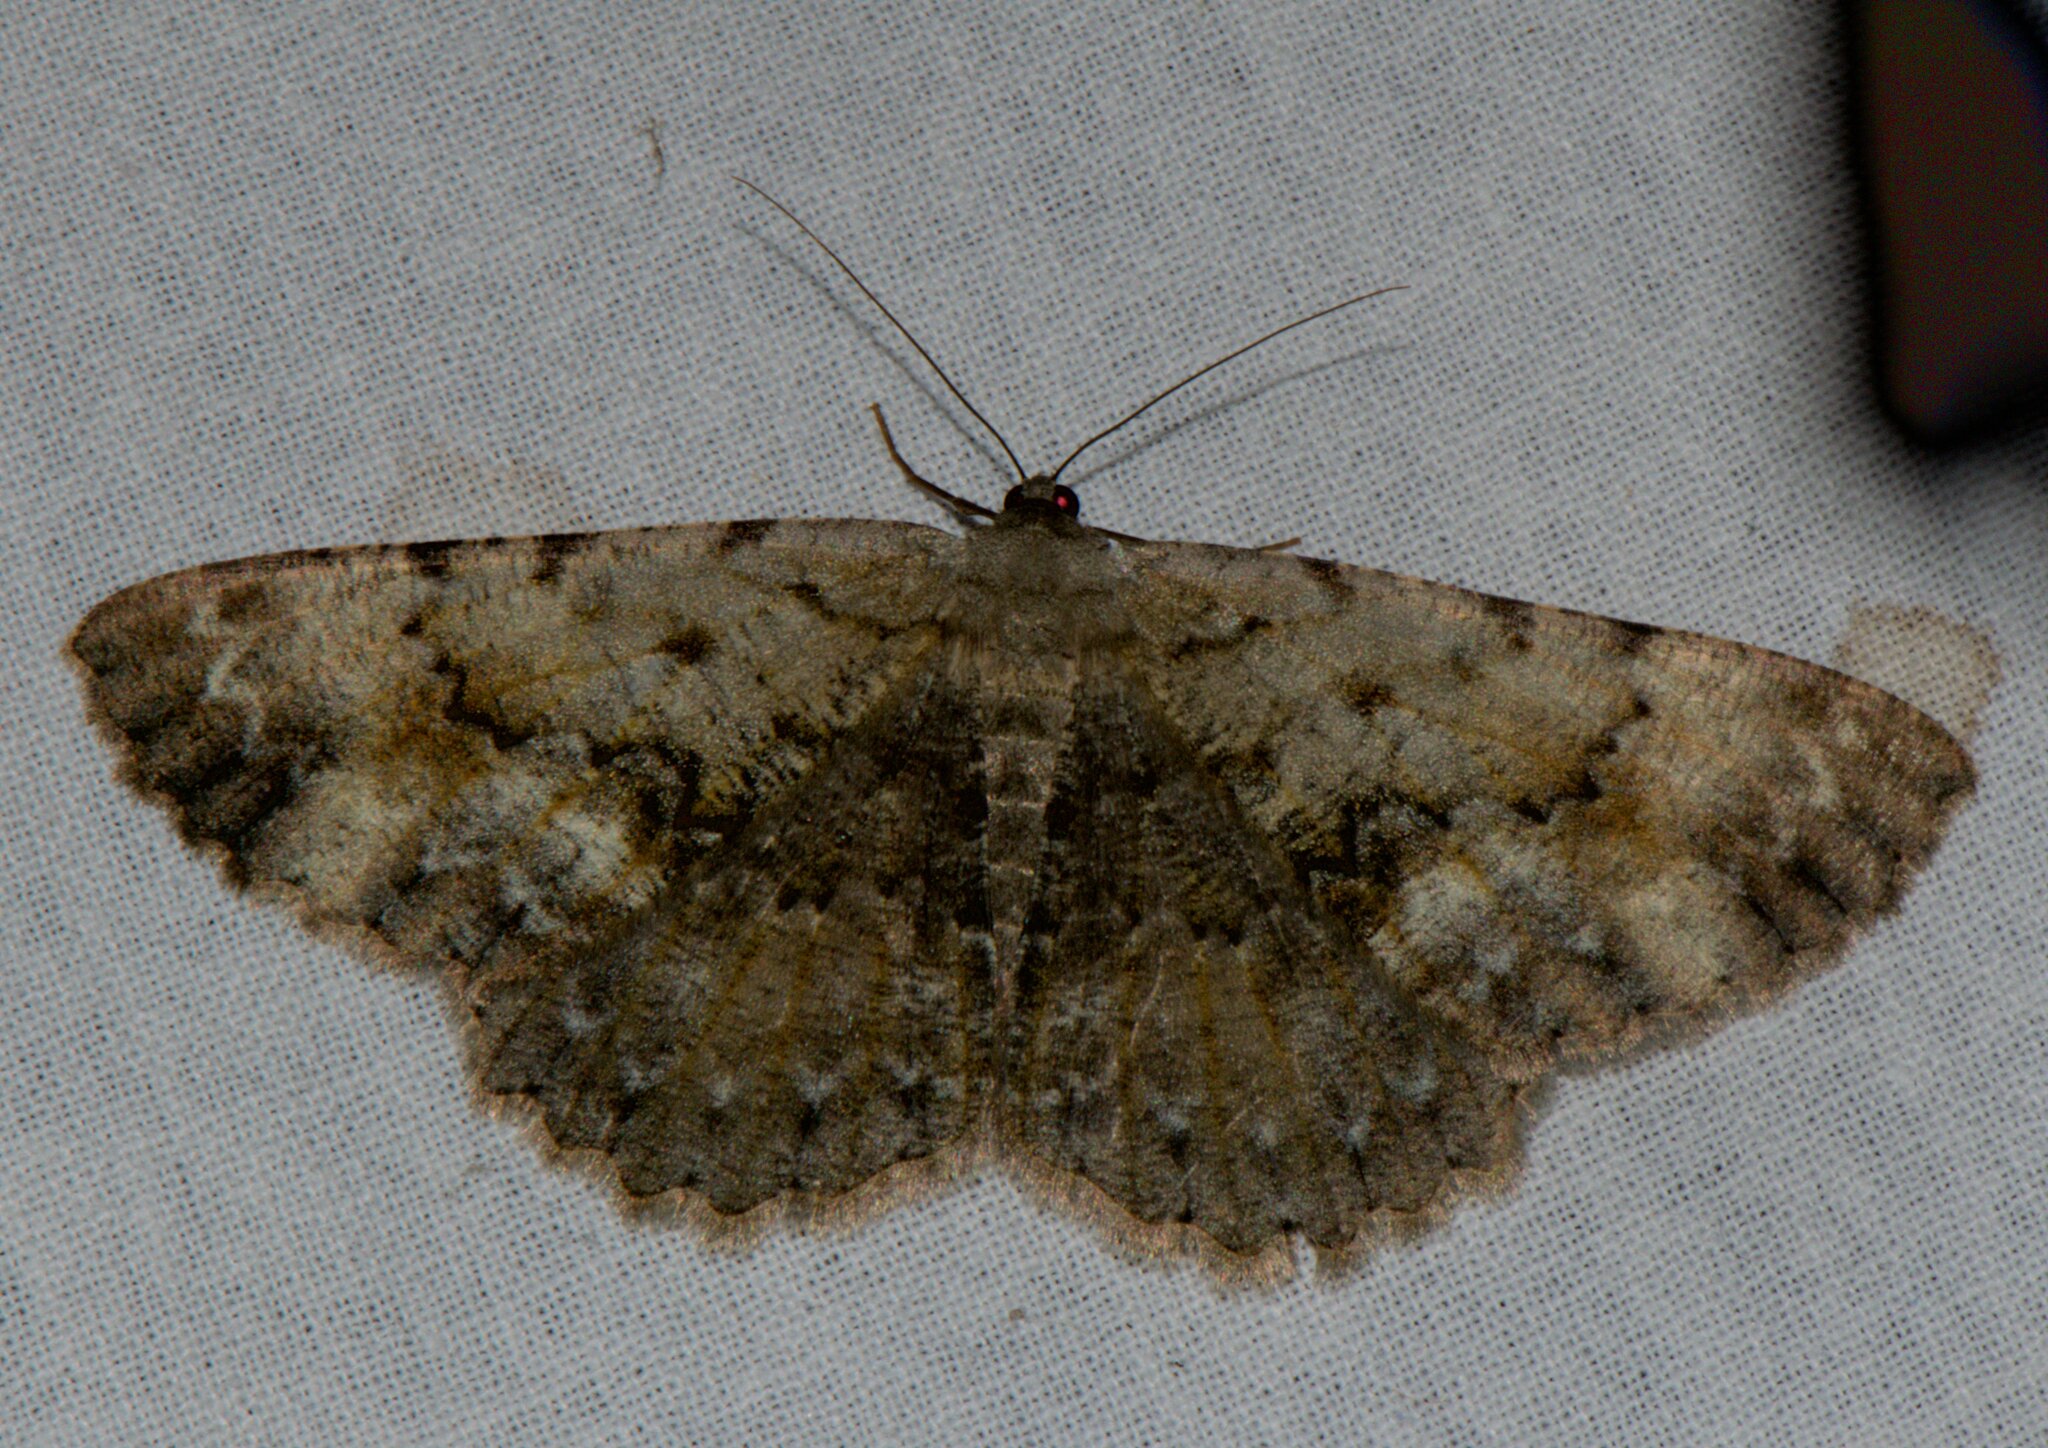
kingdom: Animalia
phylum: Arthropoda
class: Insecta
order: Lepidoptera
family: Geometridae
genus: Gnophos
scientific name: Gnophos accipitraria
